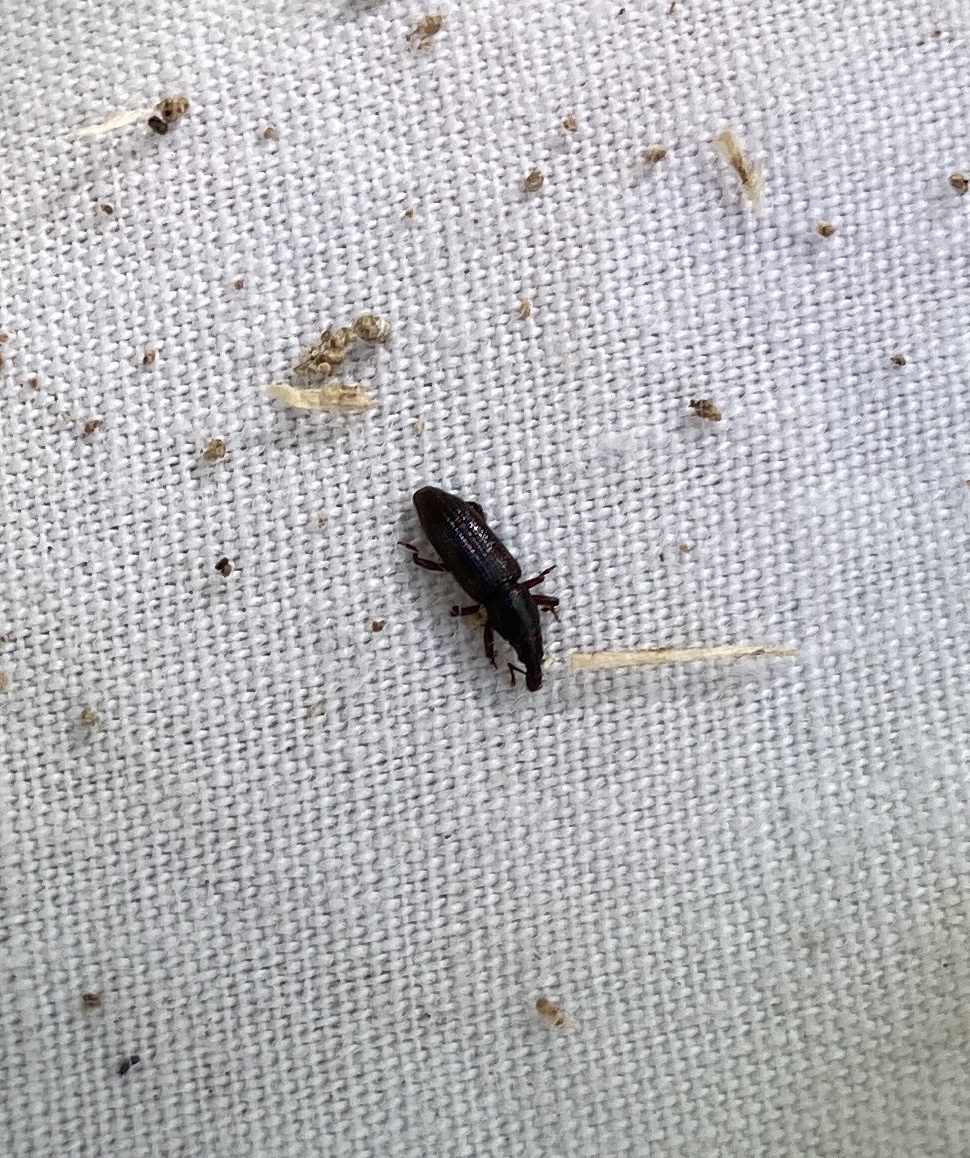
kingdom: Animalia
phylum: Arthropoda
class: Insecta
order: Coleoptera
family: Curculionidae
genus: Oxydema
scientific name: Oxydema fusiforme
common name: Beetle
